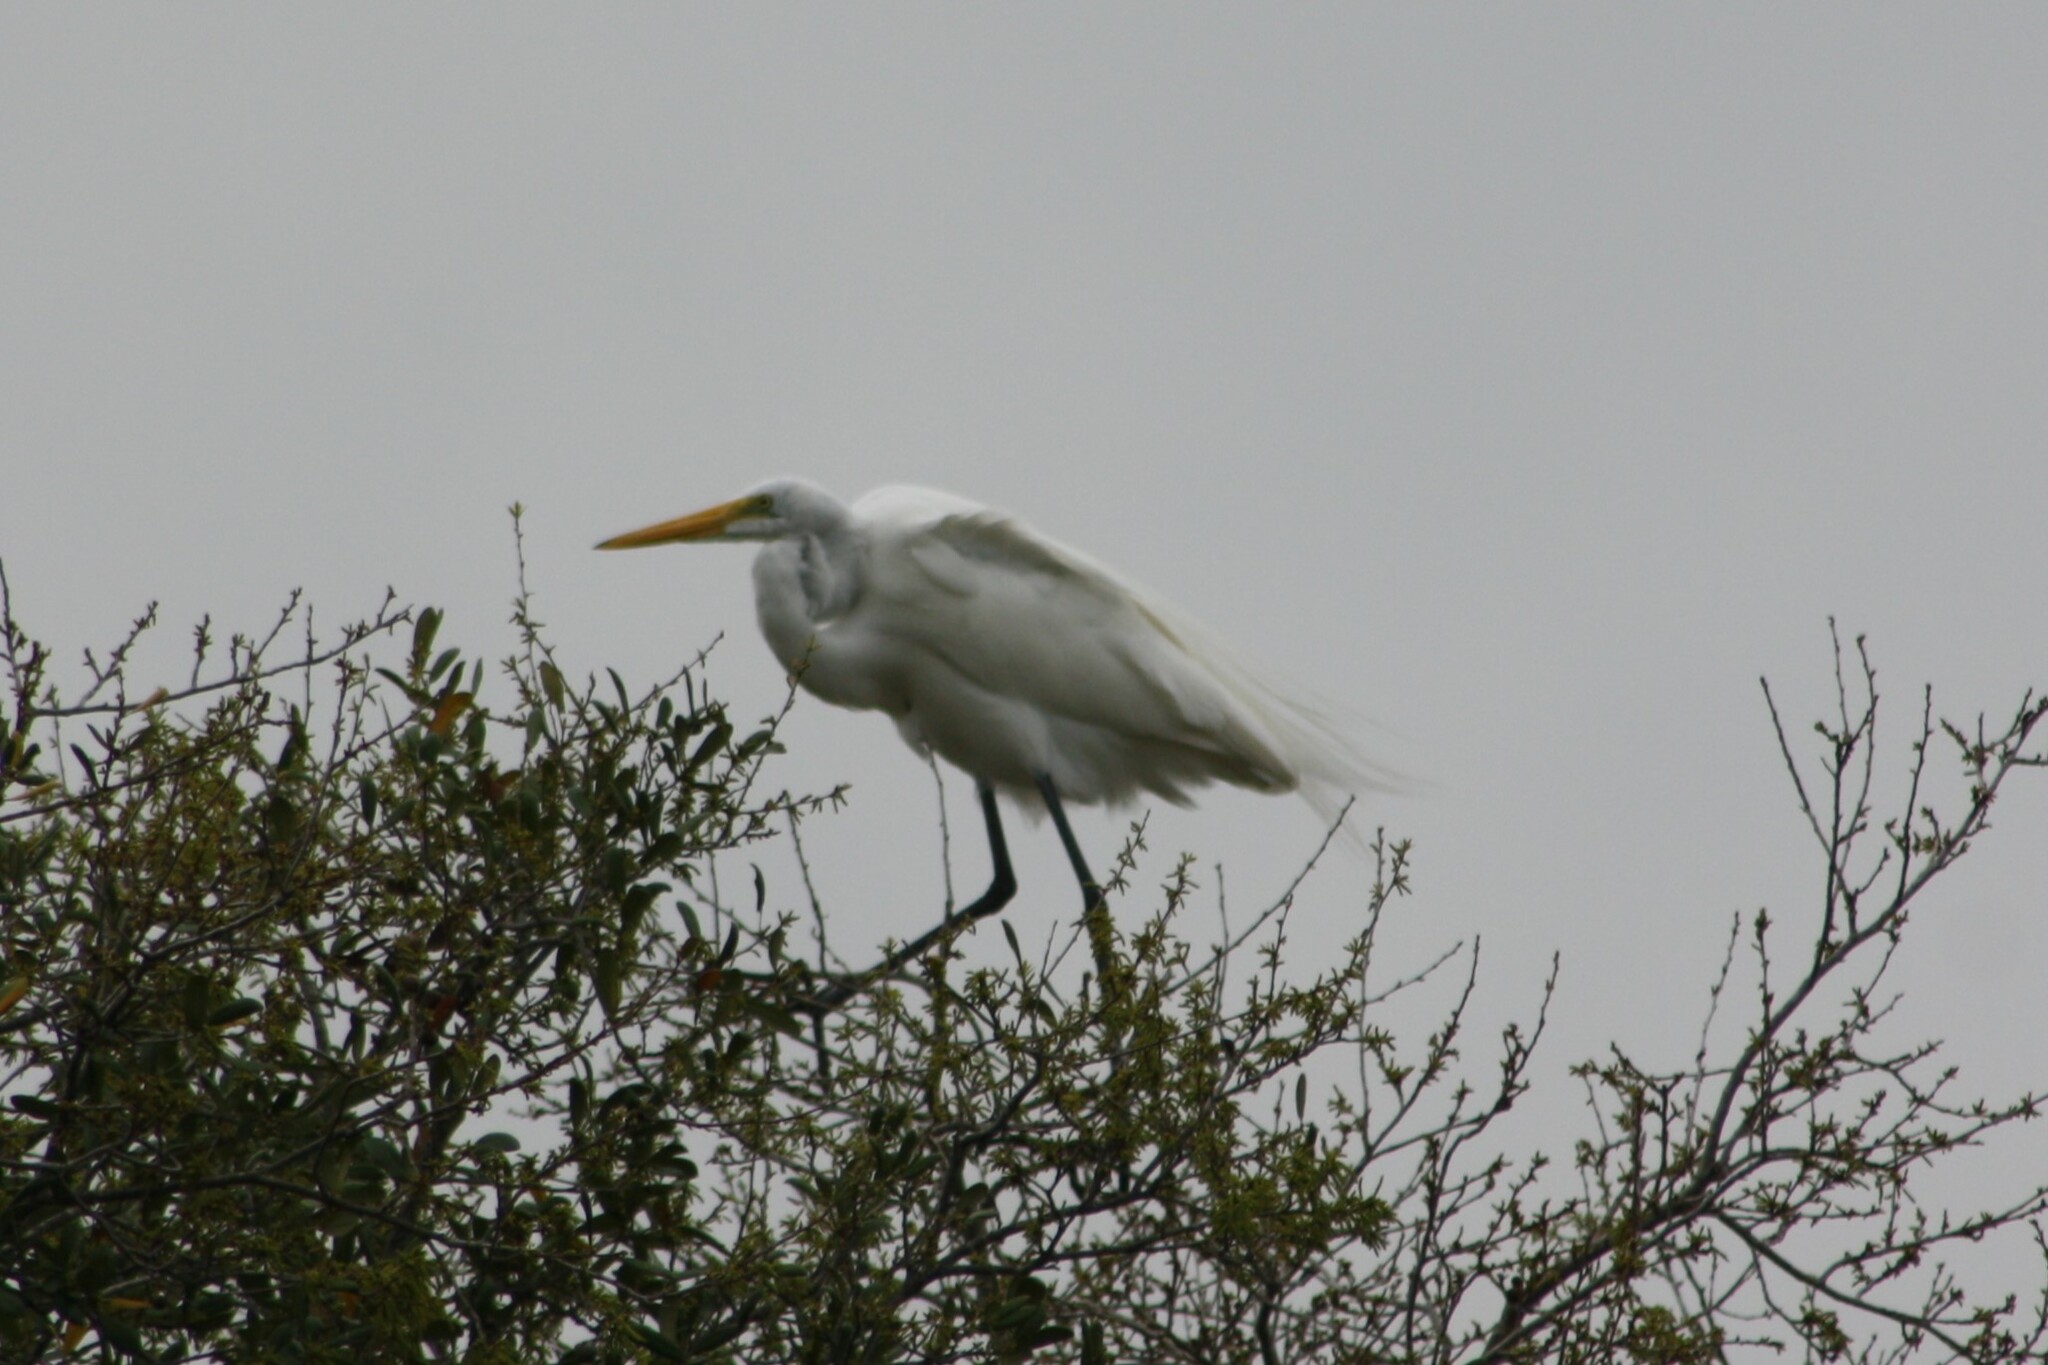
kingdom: Animalia
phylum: Chordata
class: Aves
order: Pelecaniformes
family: Ardeidae
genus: Ardea
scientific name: Ardea alba
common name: Great egret
